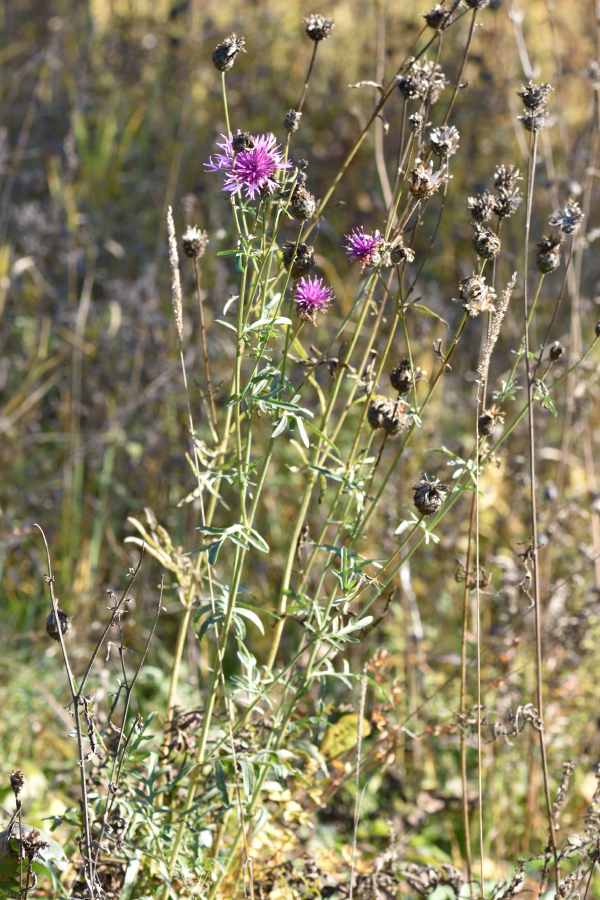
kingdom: Plantae
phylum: Tracheophyta
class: Magnoliopsida
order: Asterales
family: Asteraceae
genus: Centaurea
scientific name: Centaurea scabiosa
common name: Greater knapweed
